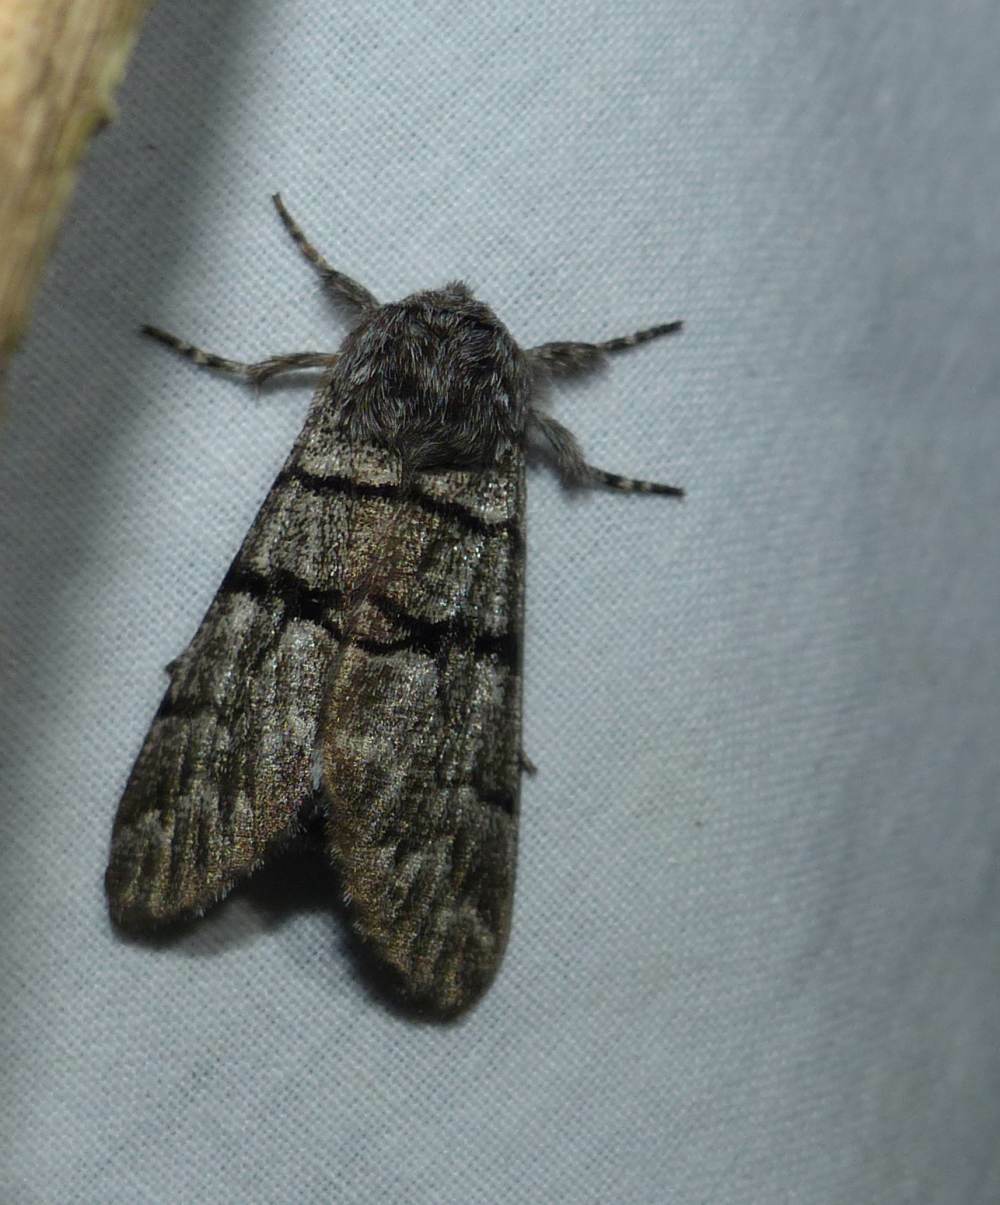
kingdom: Animalia
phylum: Arthropoda
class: Insecta
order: Lepidoptera
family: Noctuidae
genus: Panthea
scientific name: Panthea furcilla
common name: Eastern panthea moth
